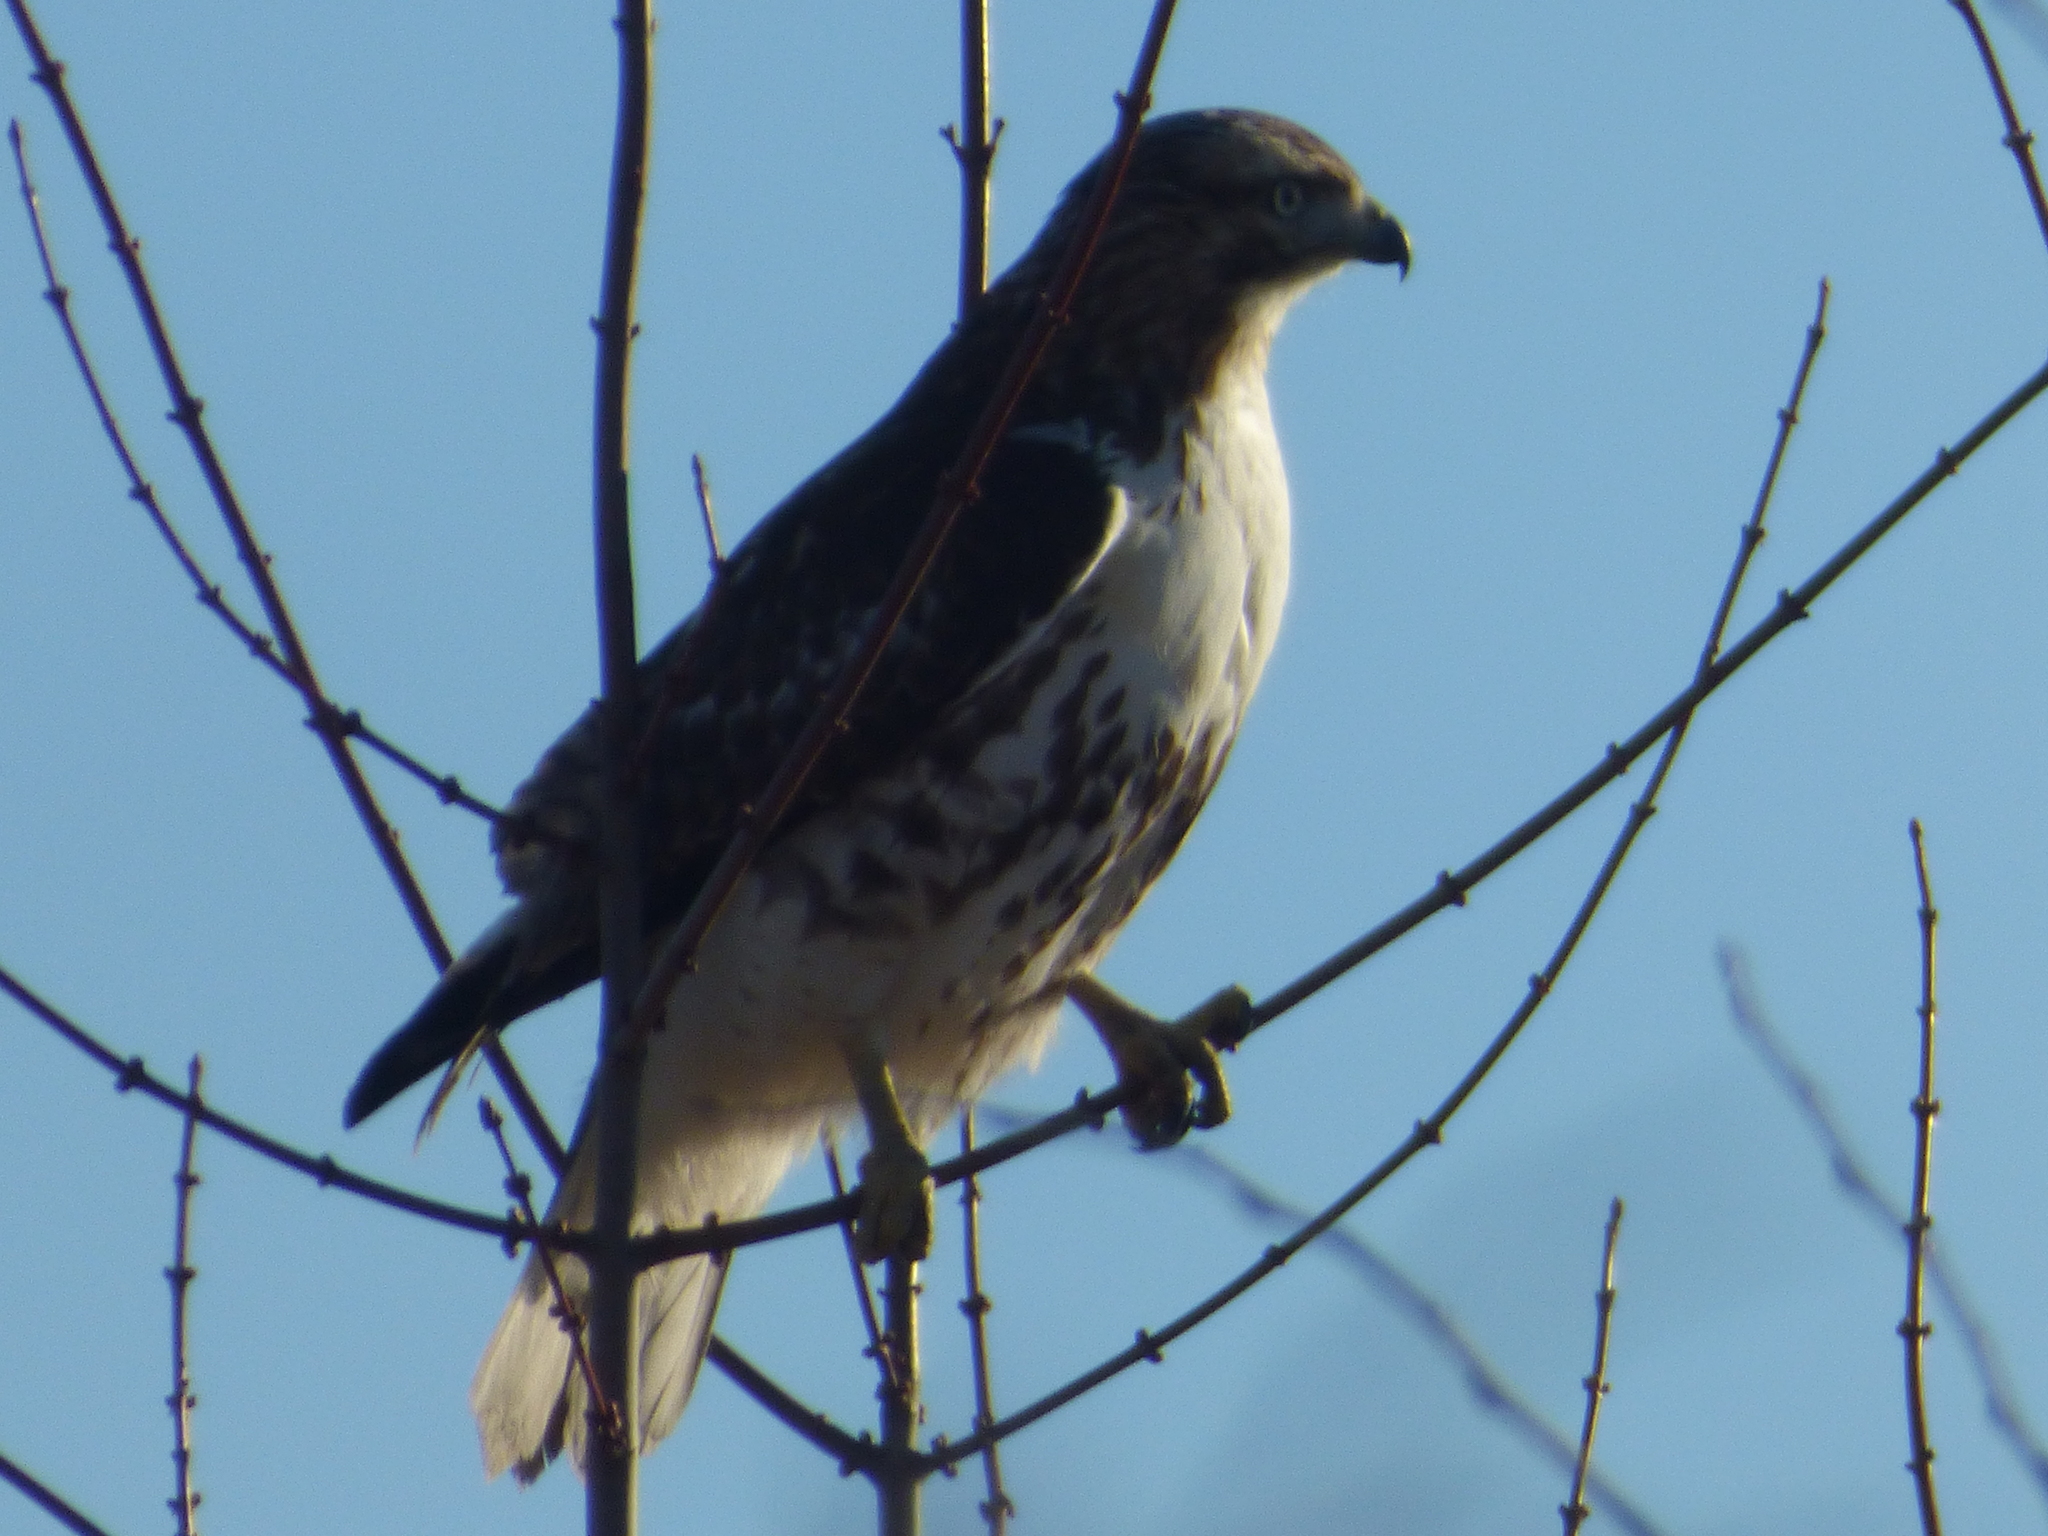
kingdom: Animalia
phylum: Chordata
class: Aves
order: Accipitriformes
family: Accipitridae
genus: Buteo
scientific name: Buteo jamaicensis
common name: Red-tailed hawk
